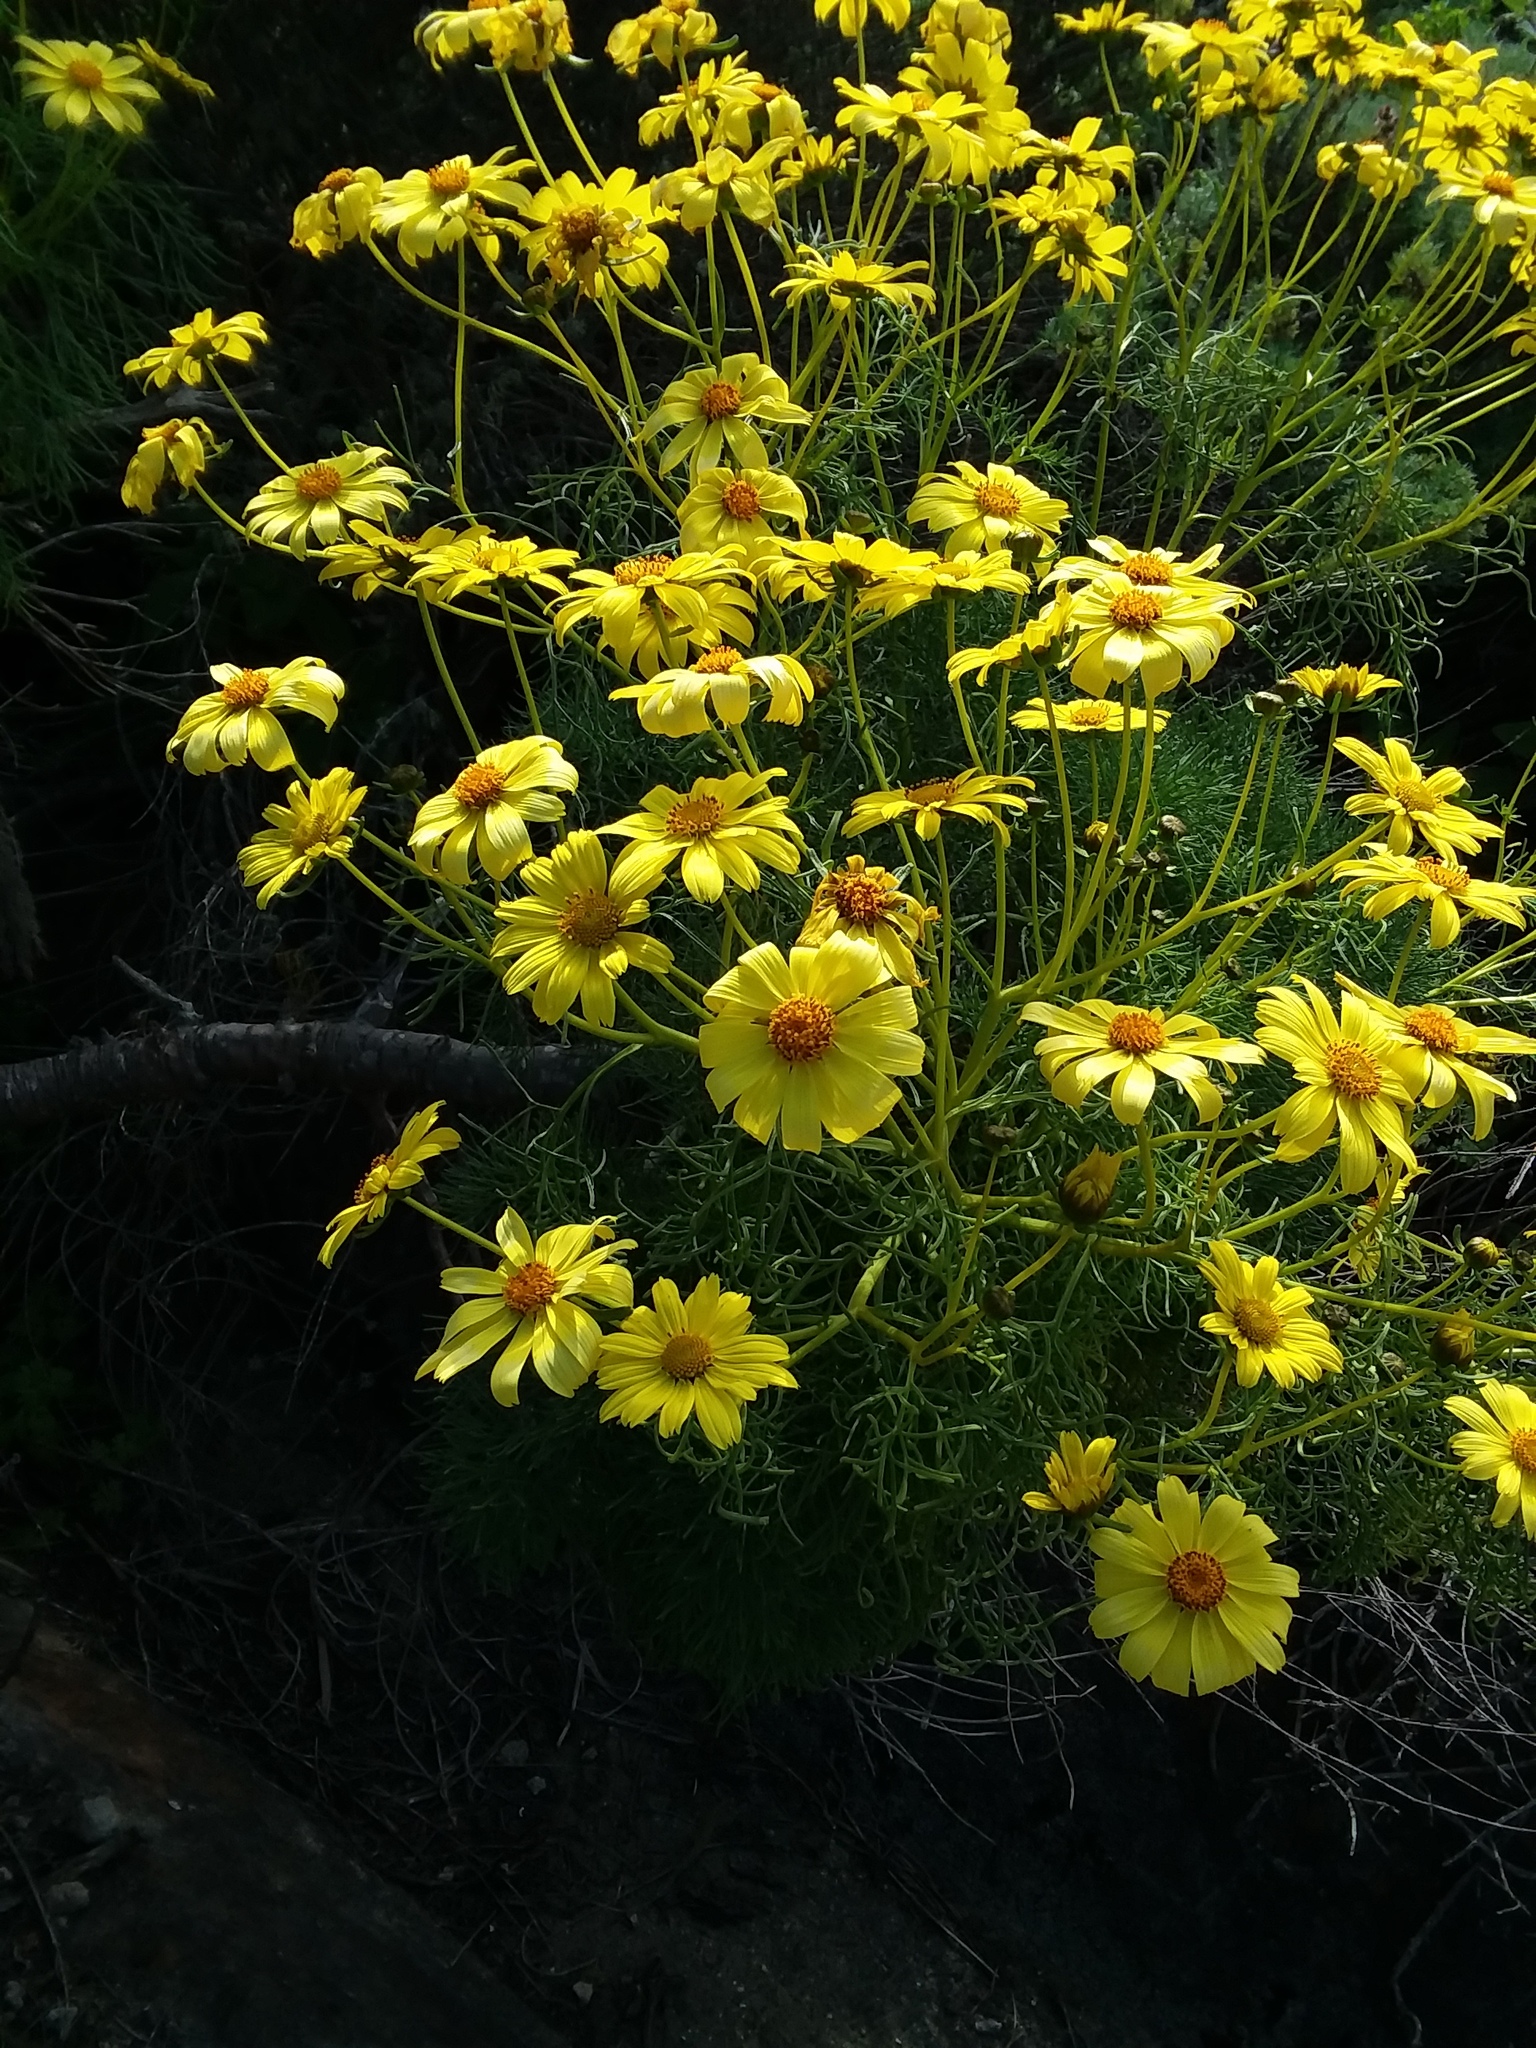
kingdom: Plantae
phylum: Tracheophyta
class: Magnoliopsida
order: Asterales
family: Asteraceae
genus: Coreopsis
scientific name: Coreopsis gigantea
